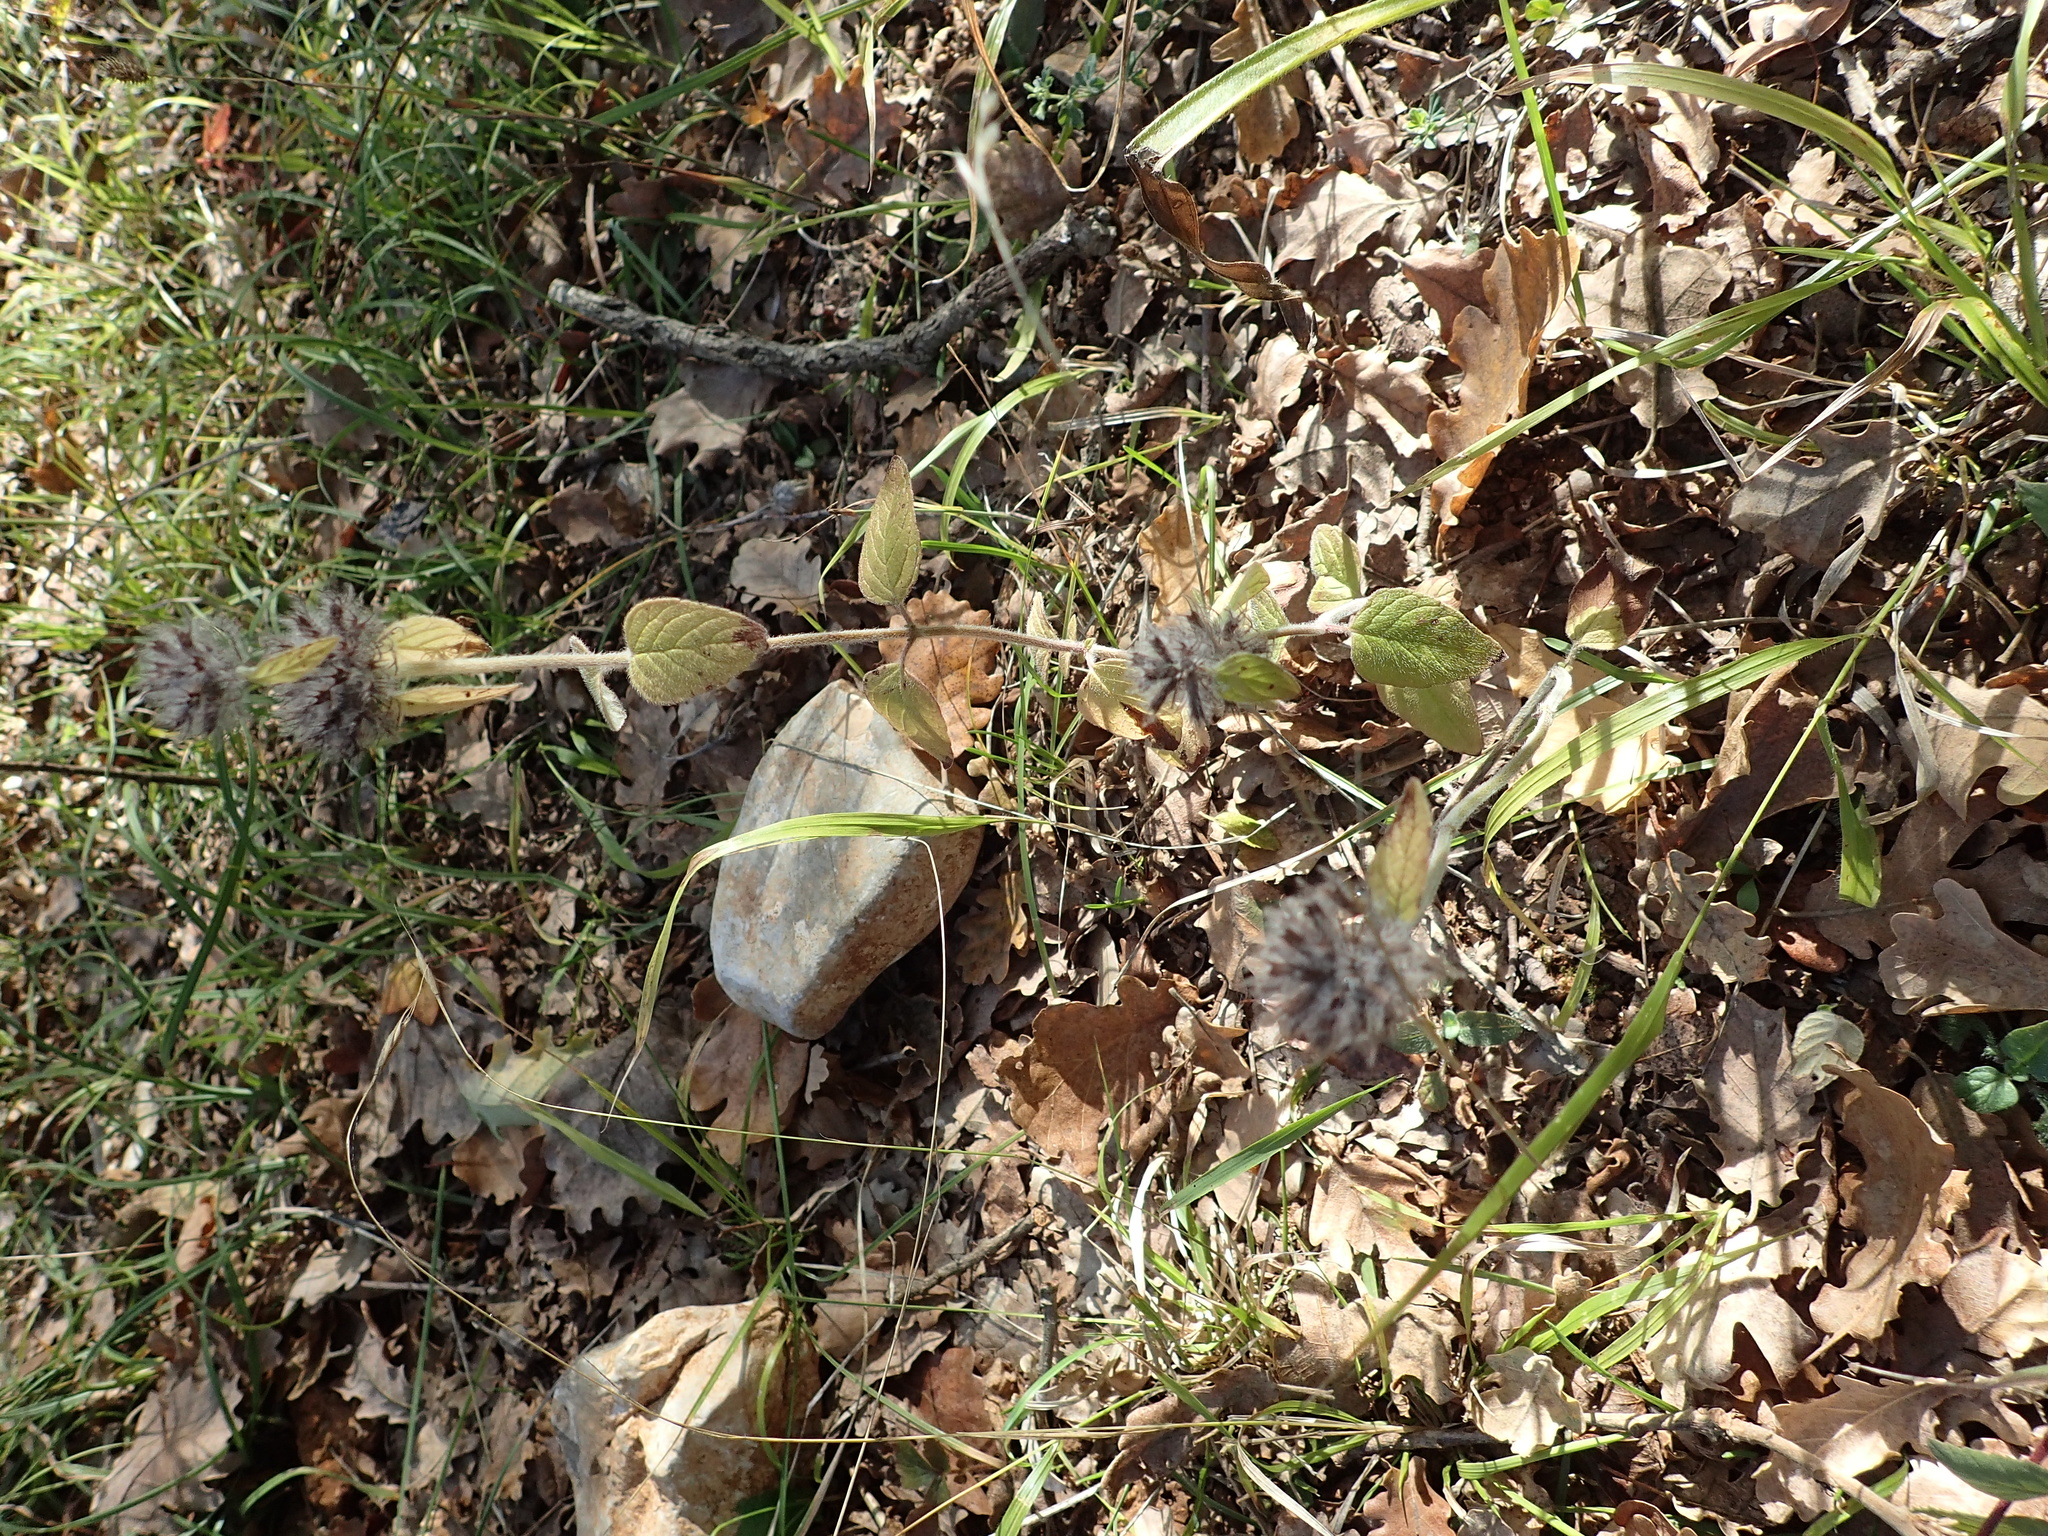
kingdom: Plantae
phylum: Tracheophyta
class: Magnoliopsida
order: Lamiales
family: Lamiaceae
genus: Clinopodium
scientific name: Clinopodium vulgare
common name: Wild basil
